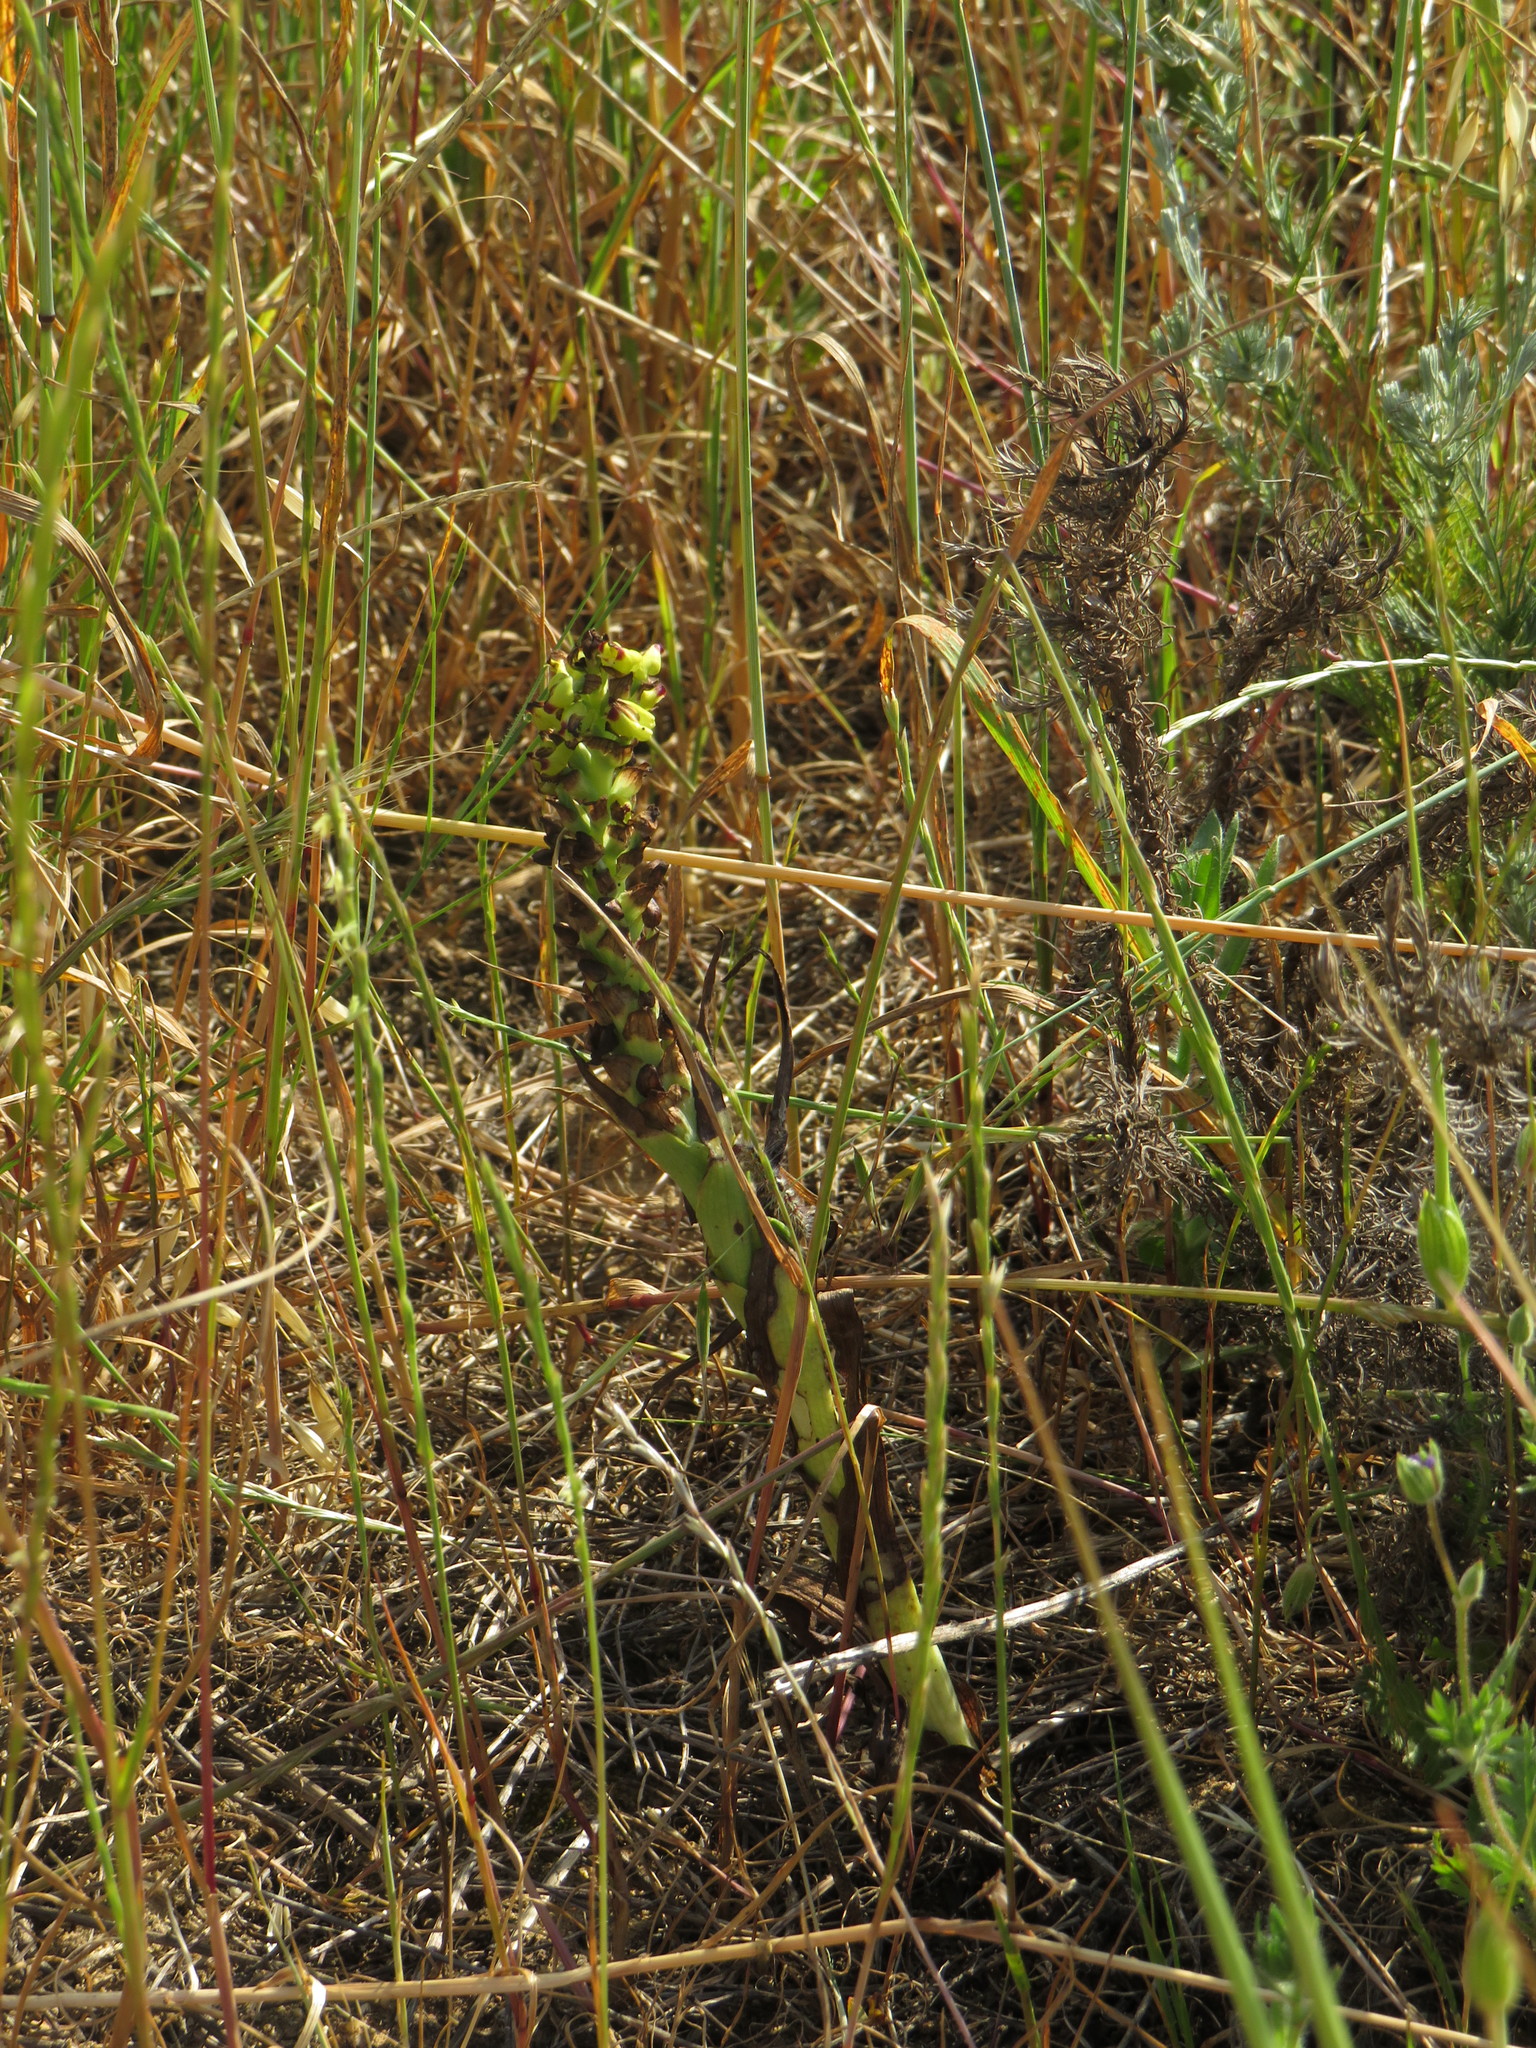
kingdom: Plantae
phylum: Tracheophyta
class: Liliopsida
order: Asparagales
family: Orchidaceae
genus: Corycium
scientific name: Corycium orobanchoides
